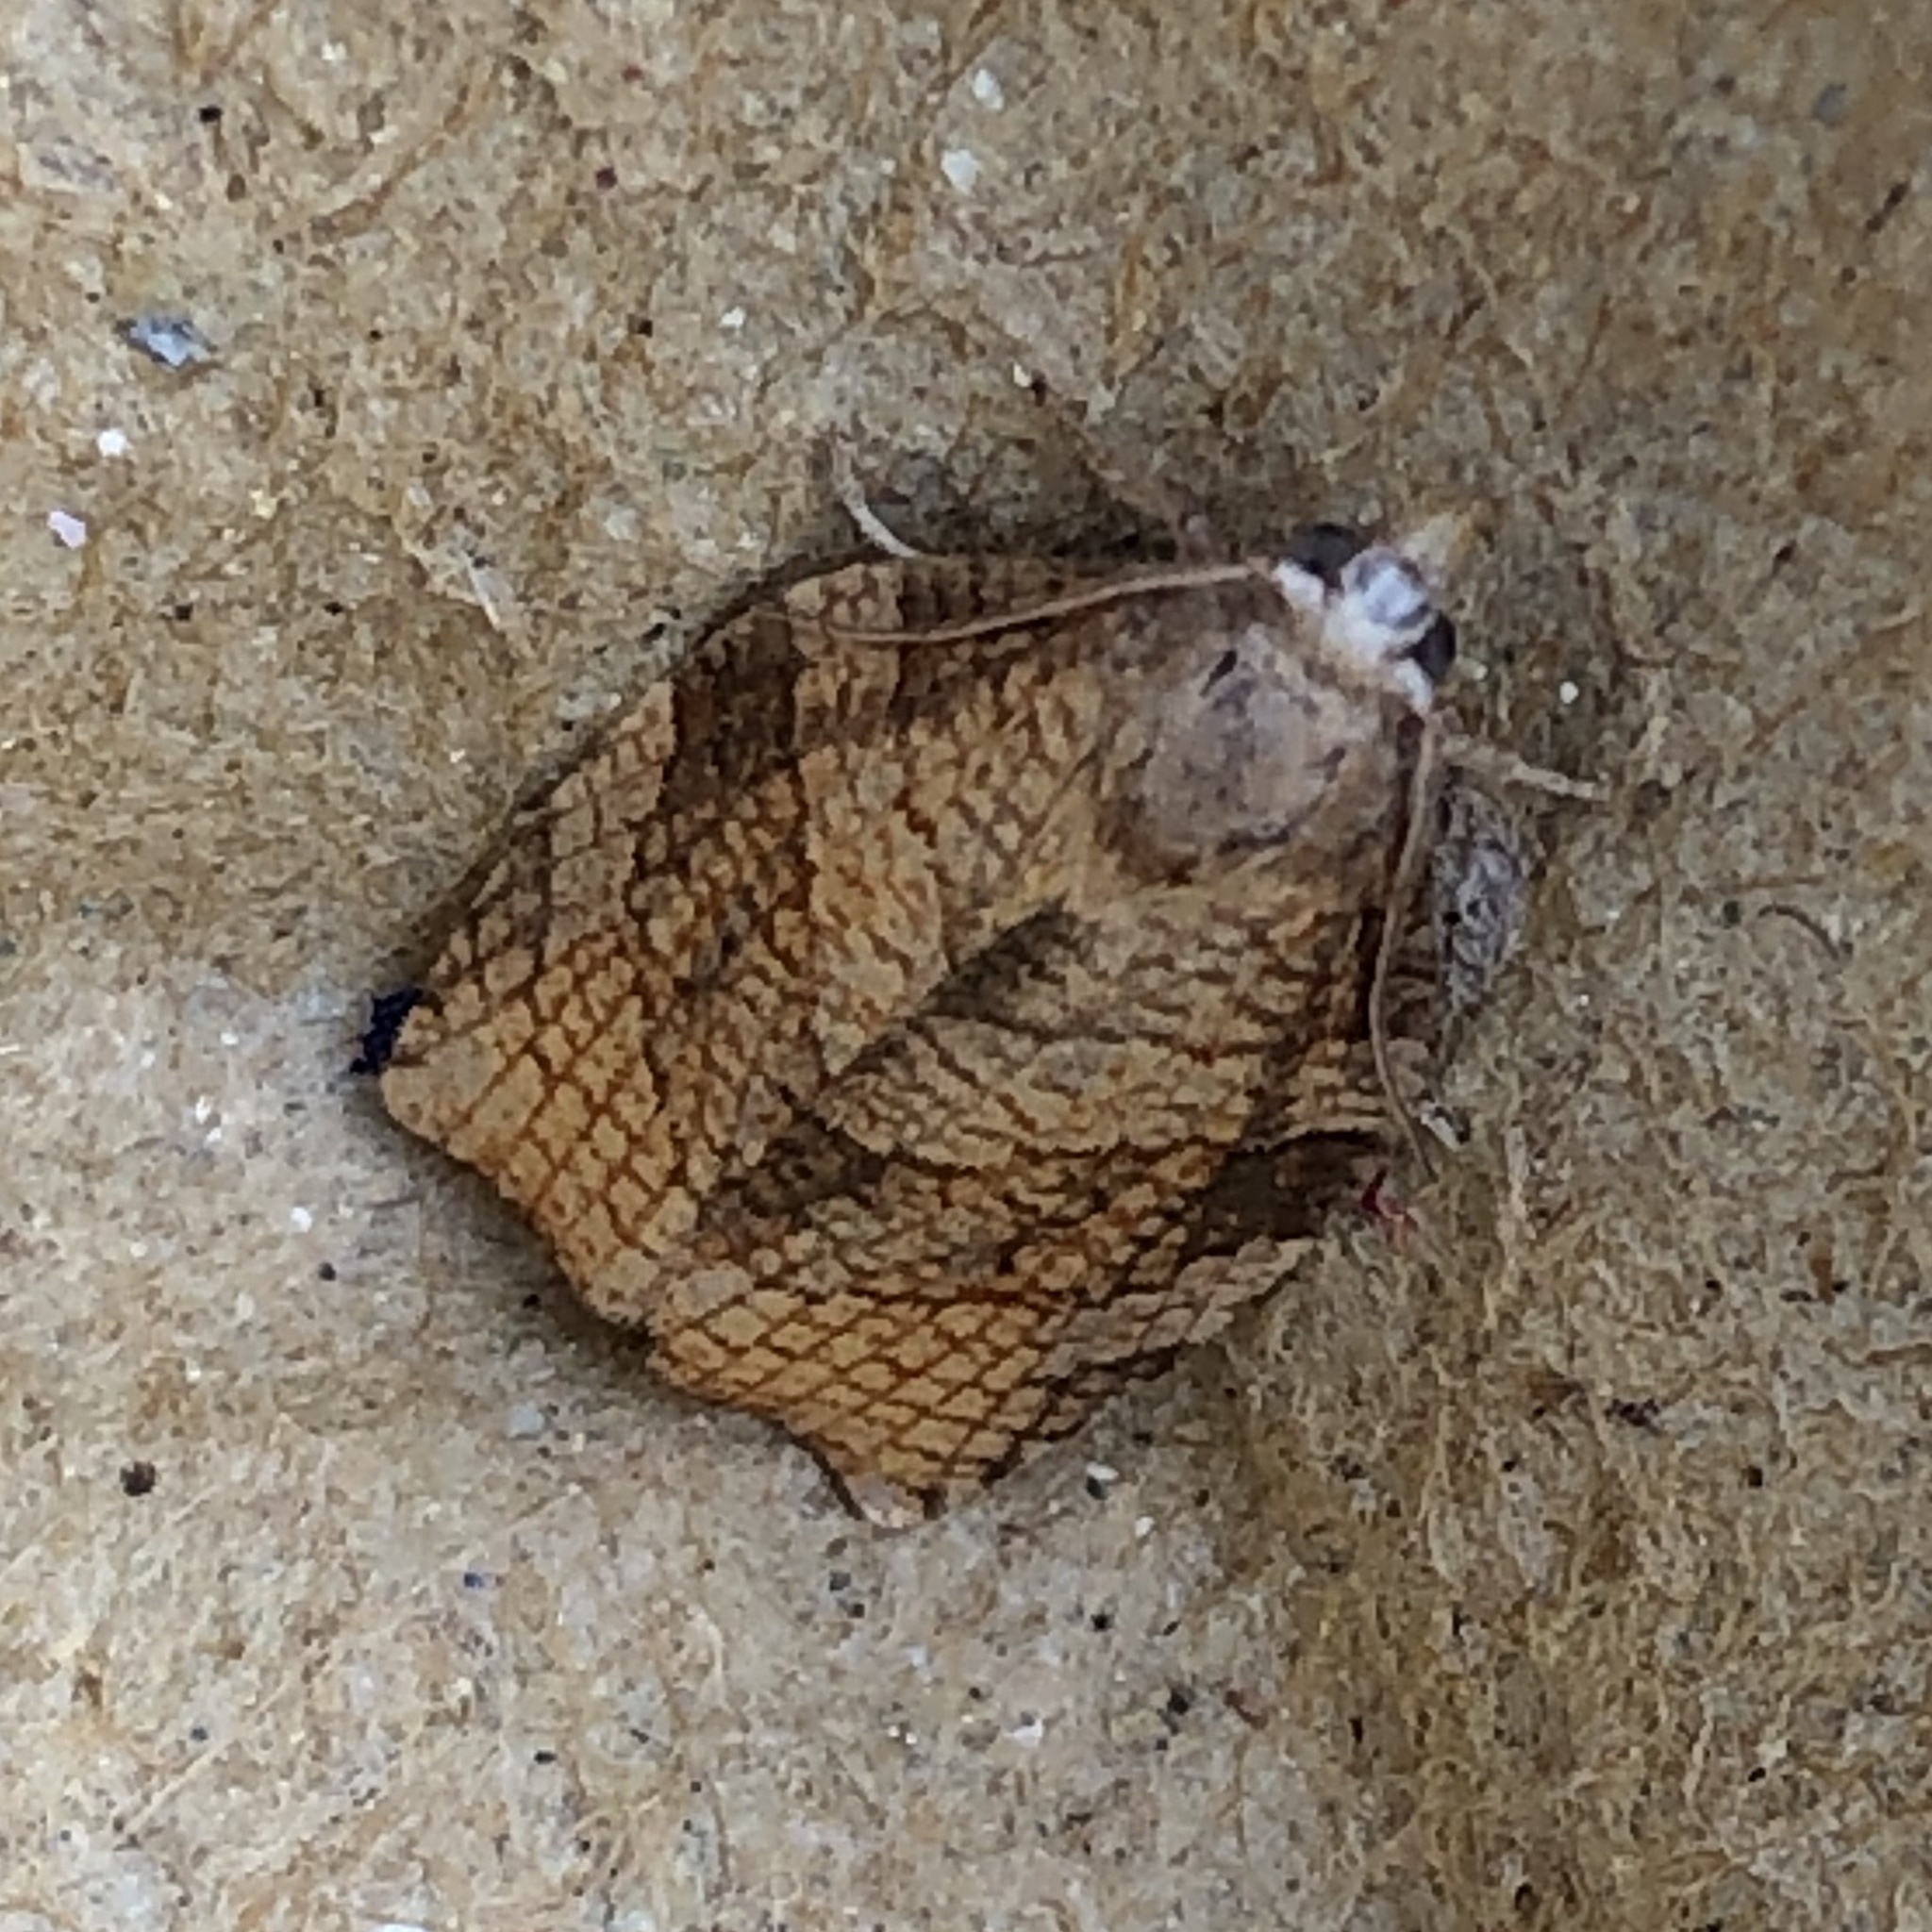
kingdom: Animalia
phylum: Arthropoda
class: Insecta
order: Lepidoptera
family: Tortricidae
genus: Pandemis
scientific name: Pandemis corylana
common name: Chequered fruit-tree tortrix
